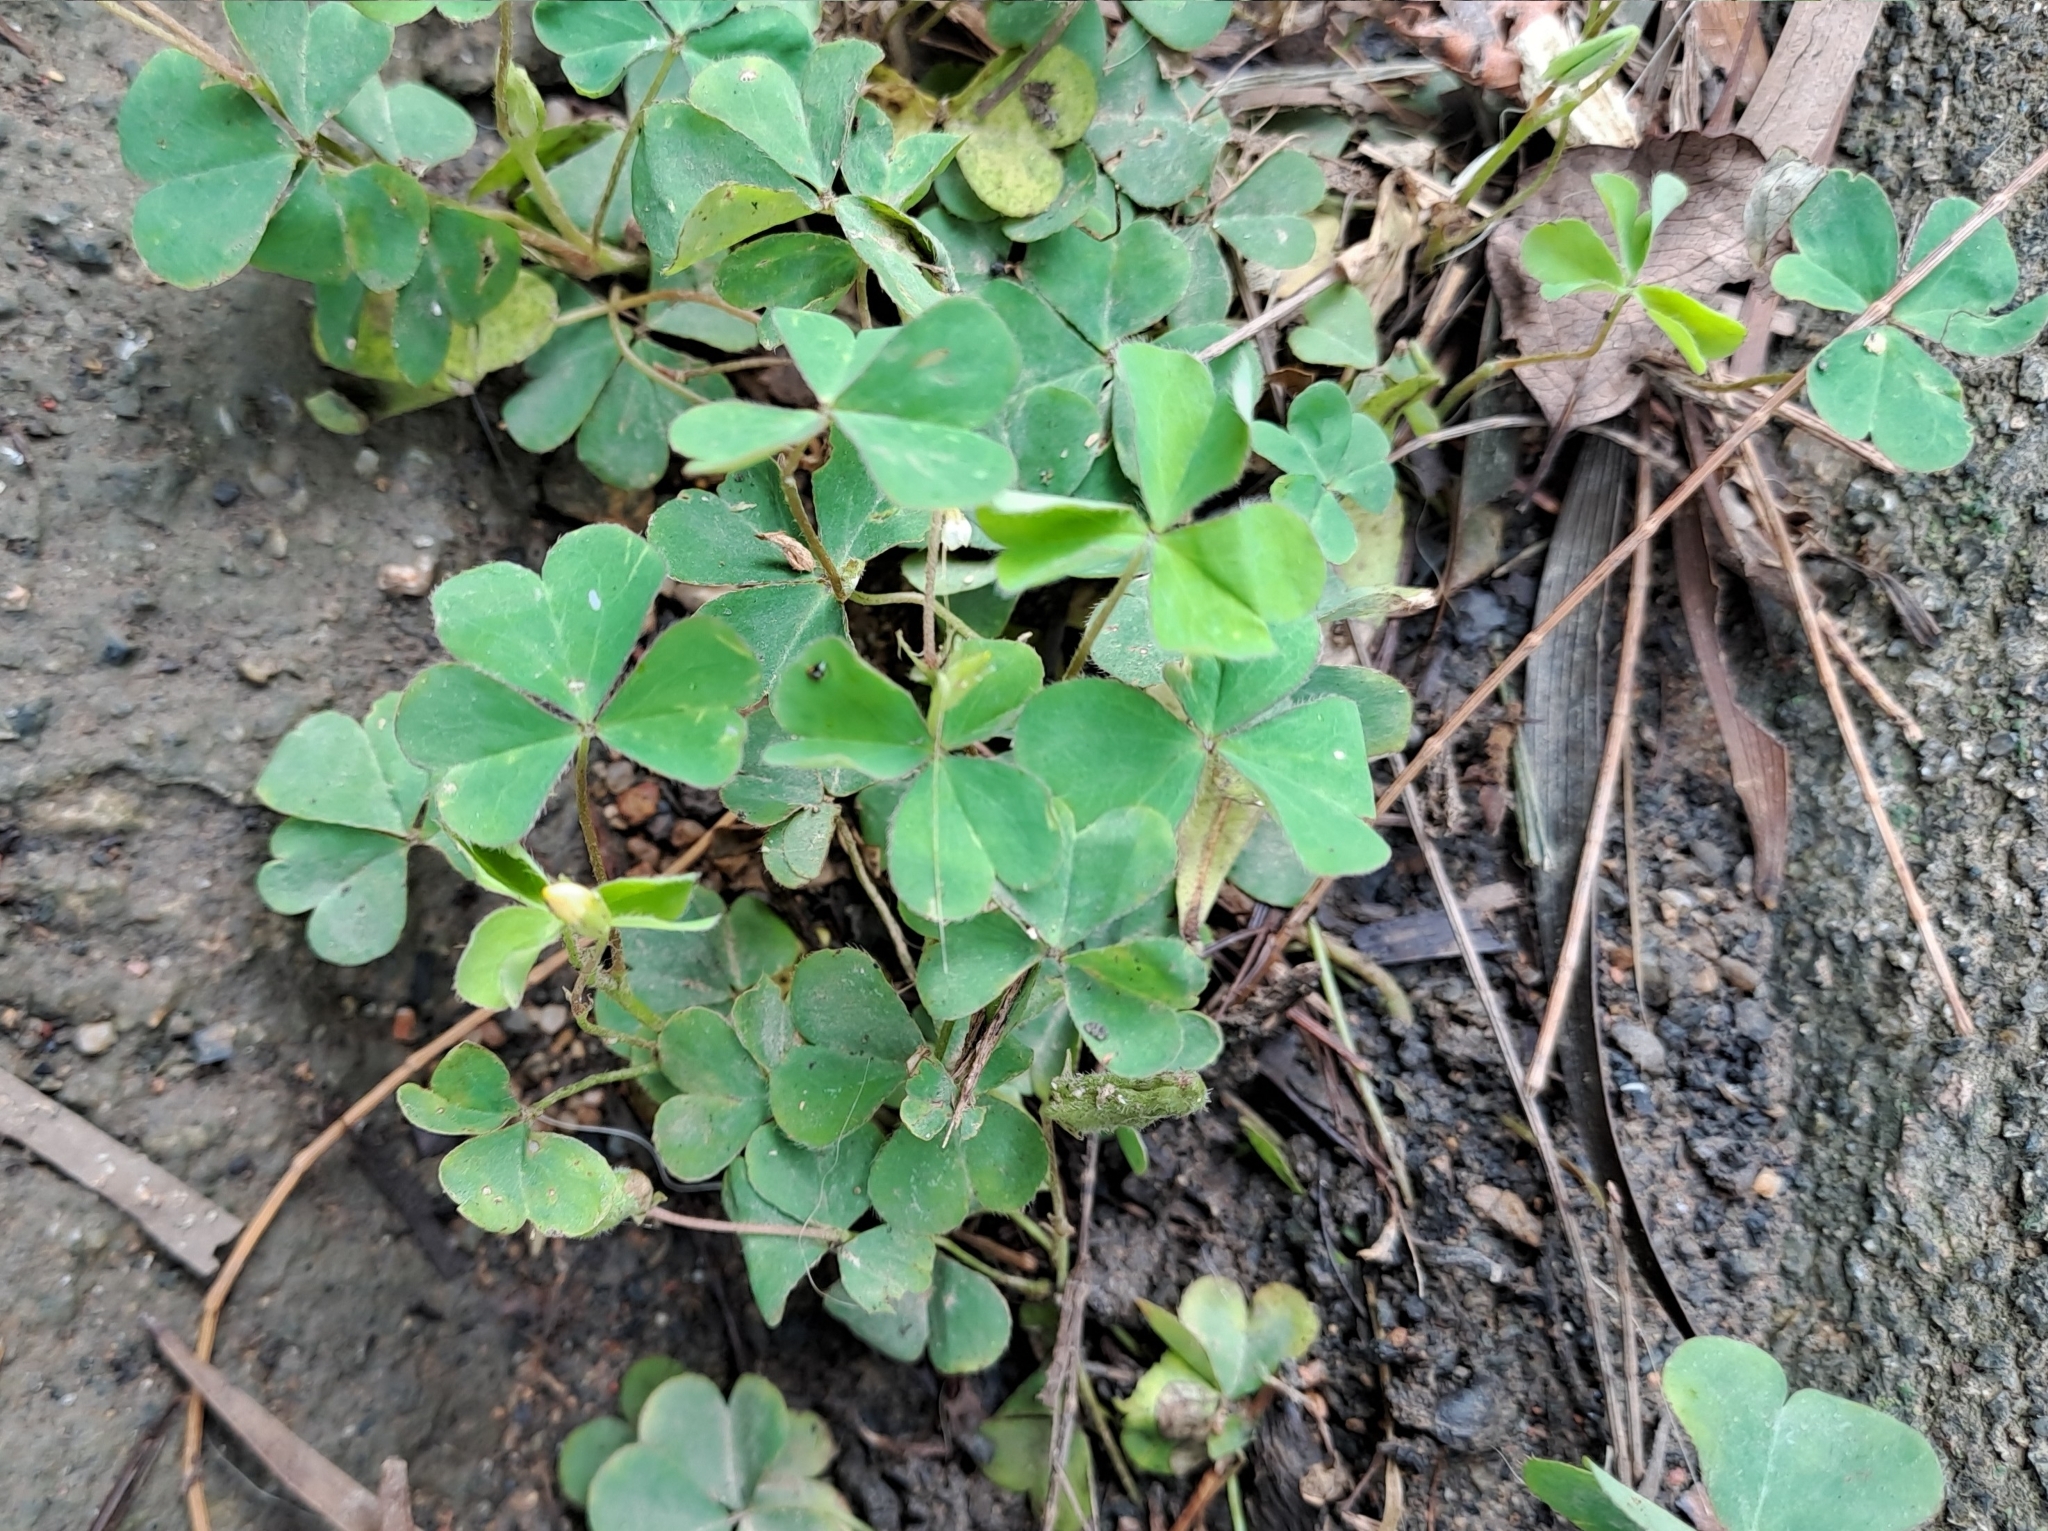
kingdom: Plantae
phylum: Tracheophyta
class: Magnoliopsida
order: Oxalidales
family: Oxalidaceae
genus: Oxalis
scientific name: Oxalis corniculata
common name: Procumbent yellow-sorrel
